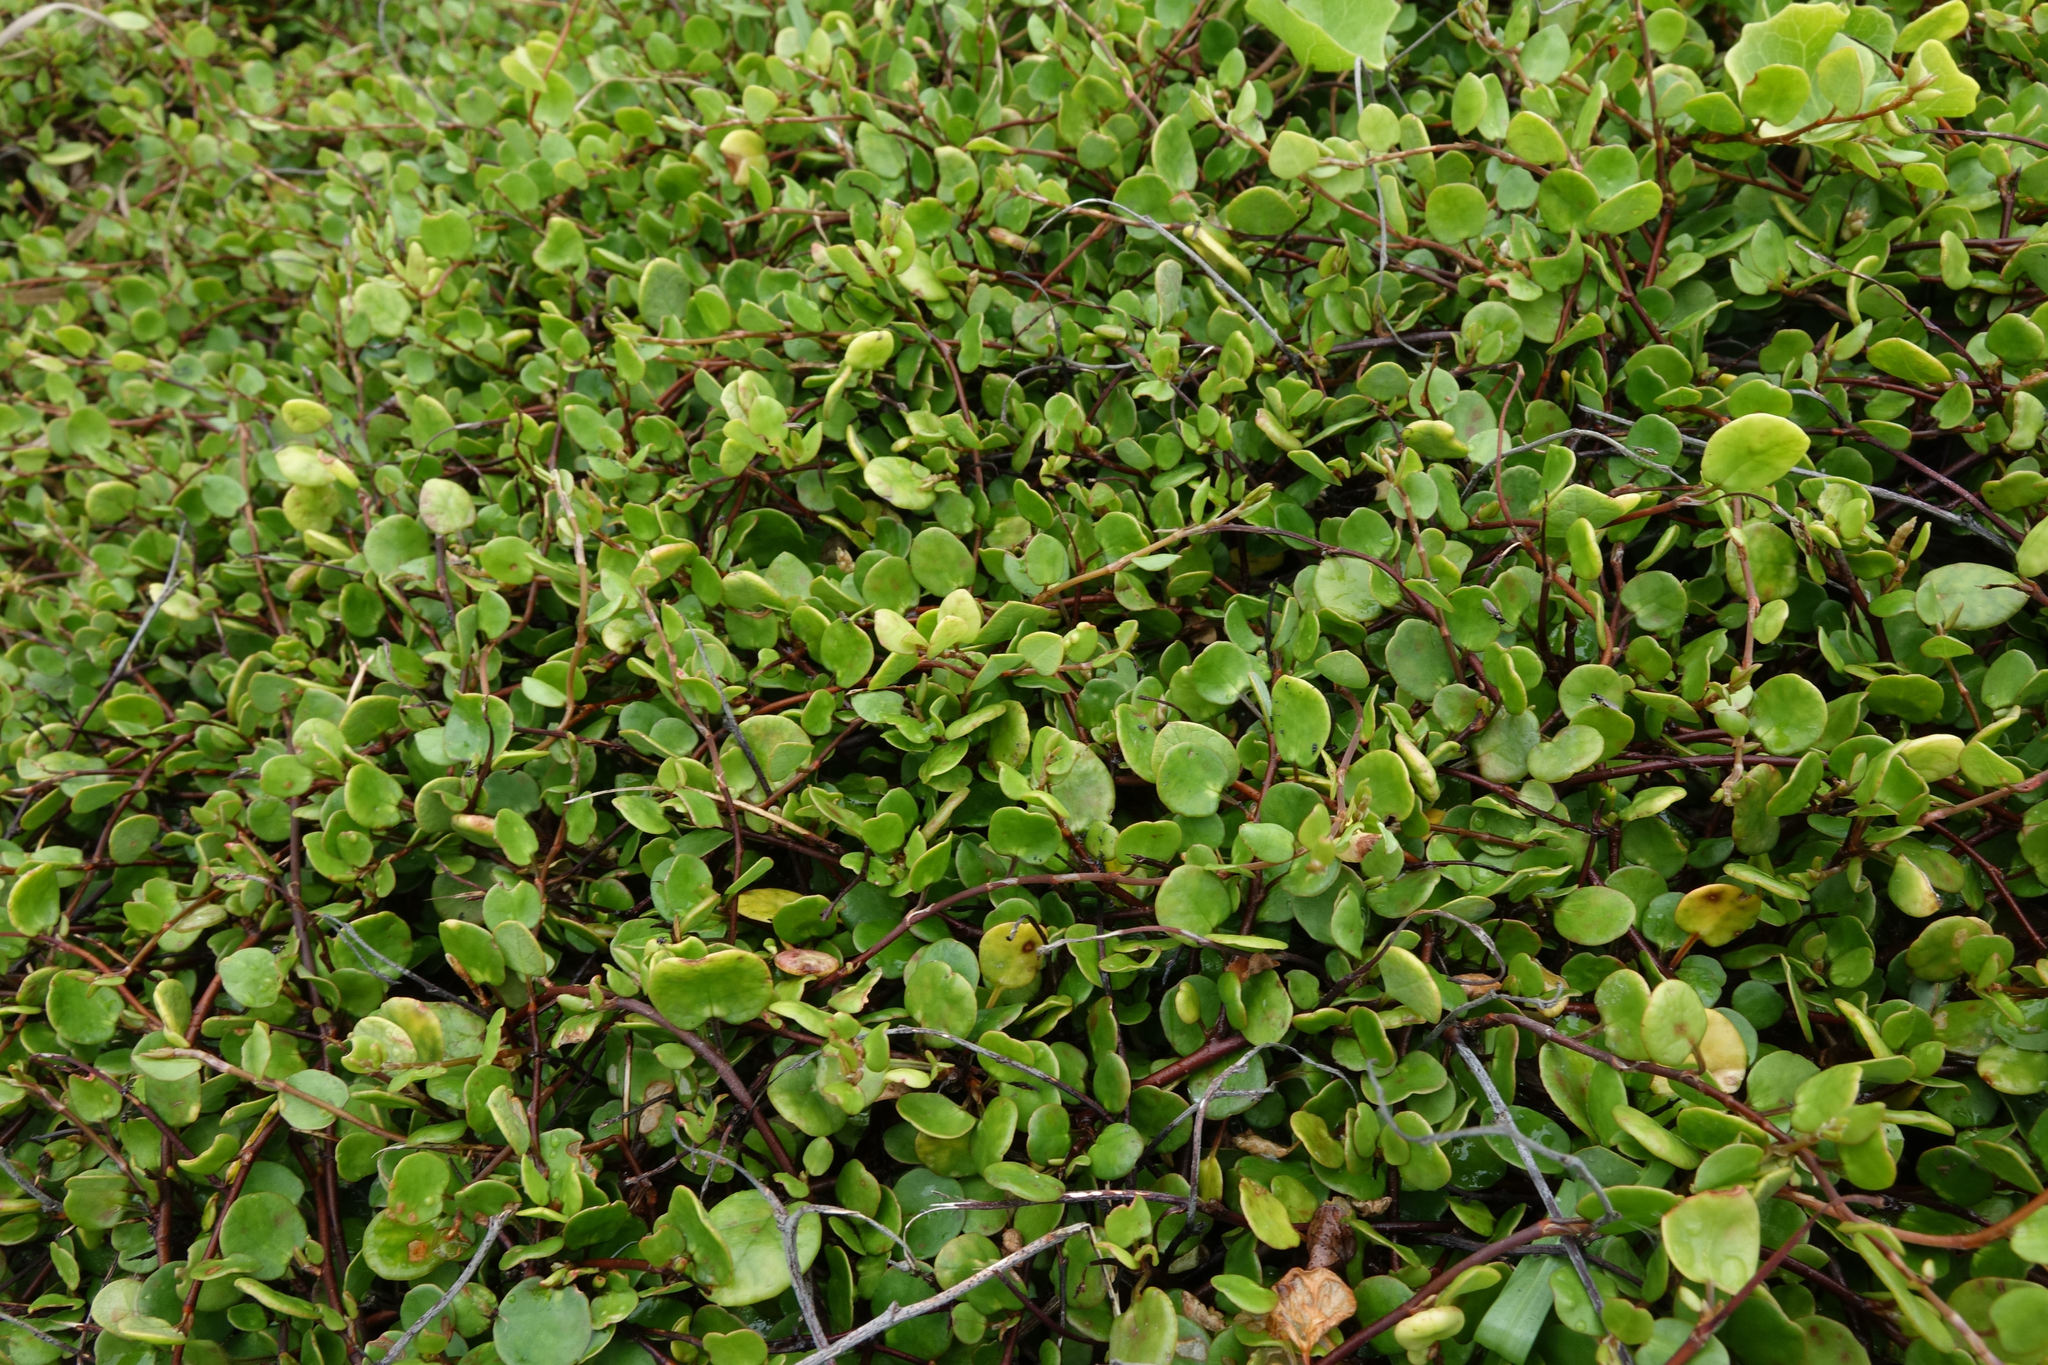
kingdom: Plantae
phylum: Tracheophyta
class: Magnoliopsida
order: Caryophyllales
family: Polygonaceae
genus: Muehlenbeckia
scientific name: Muehlenbeckia complexa
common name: Wireplant
